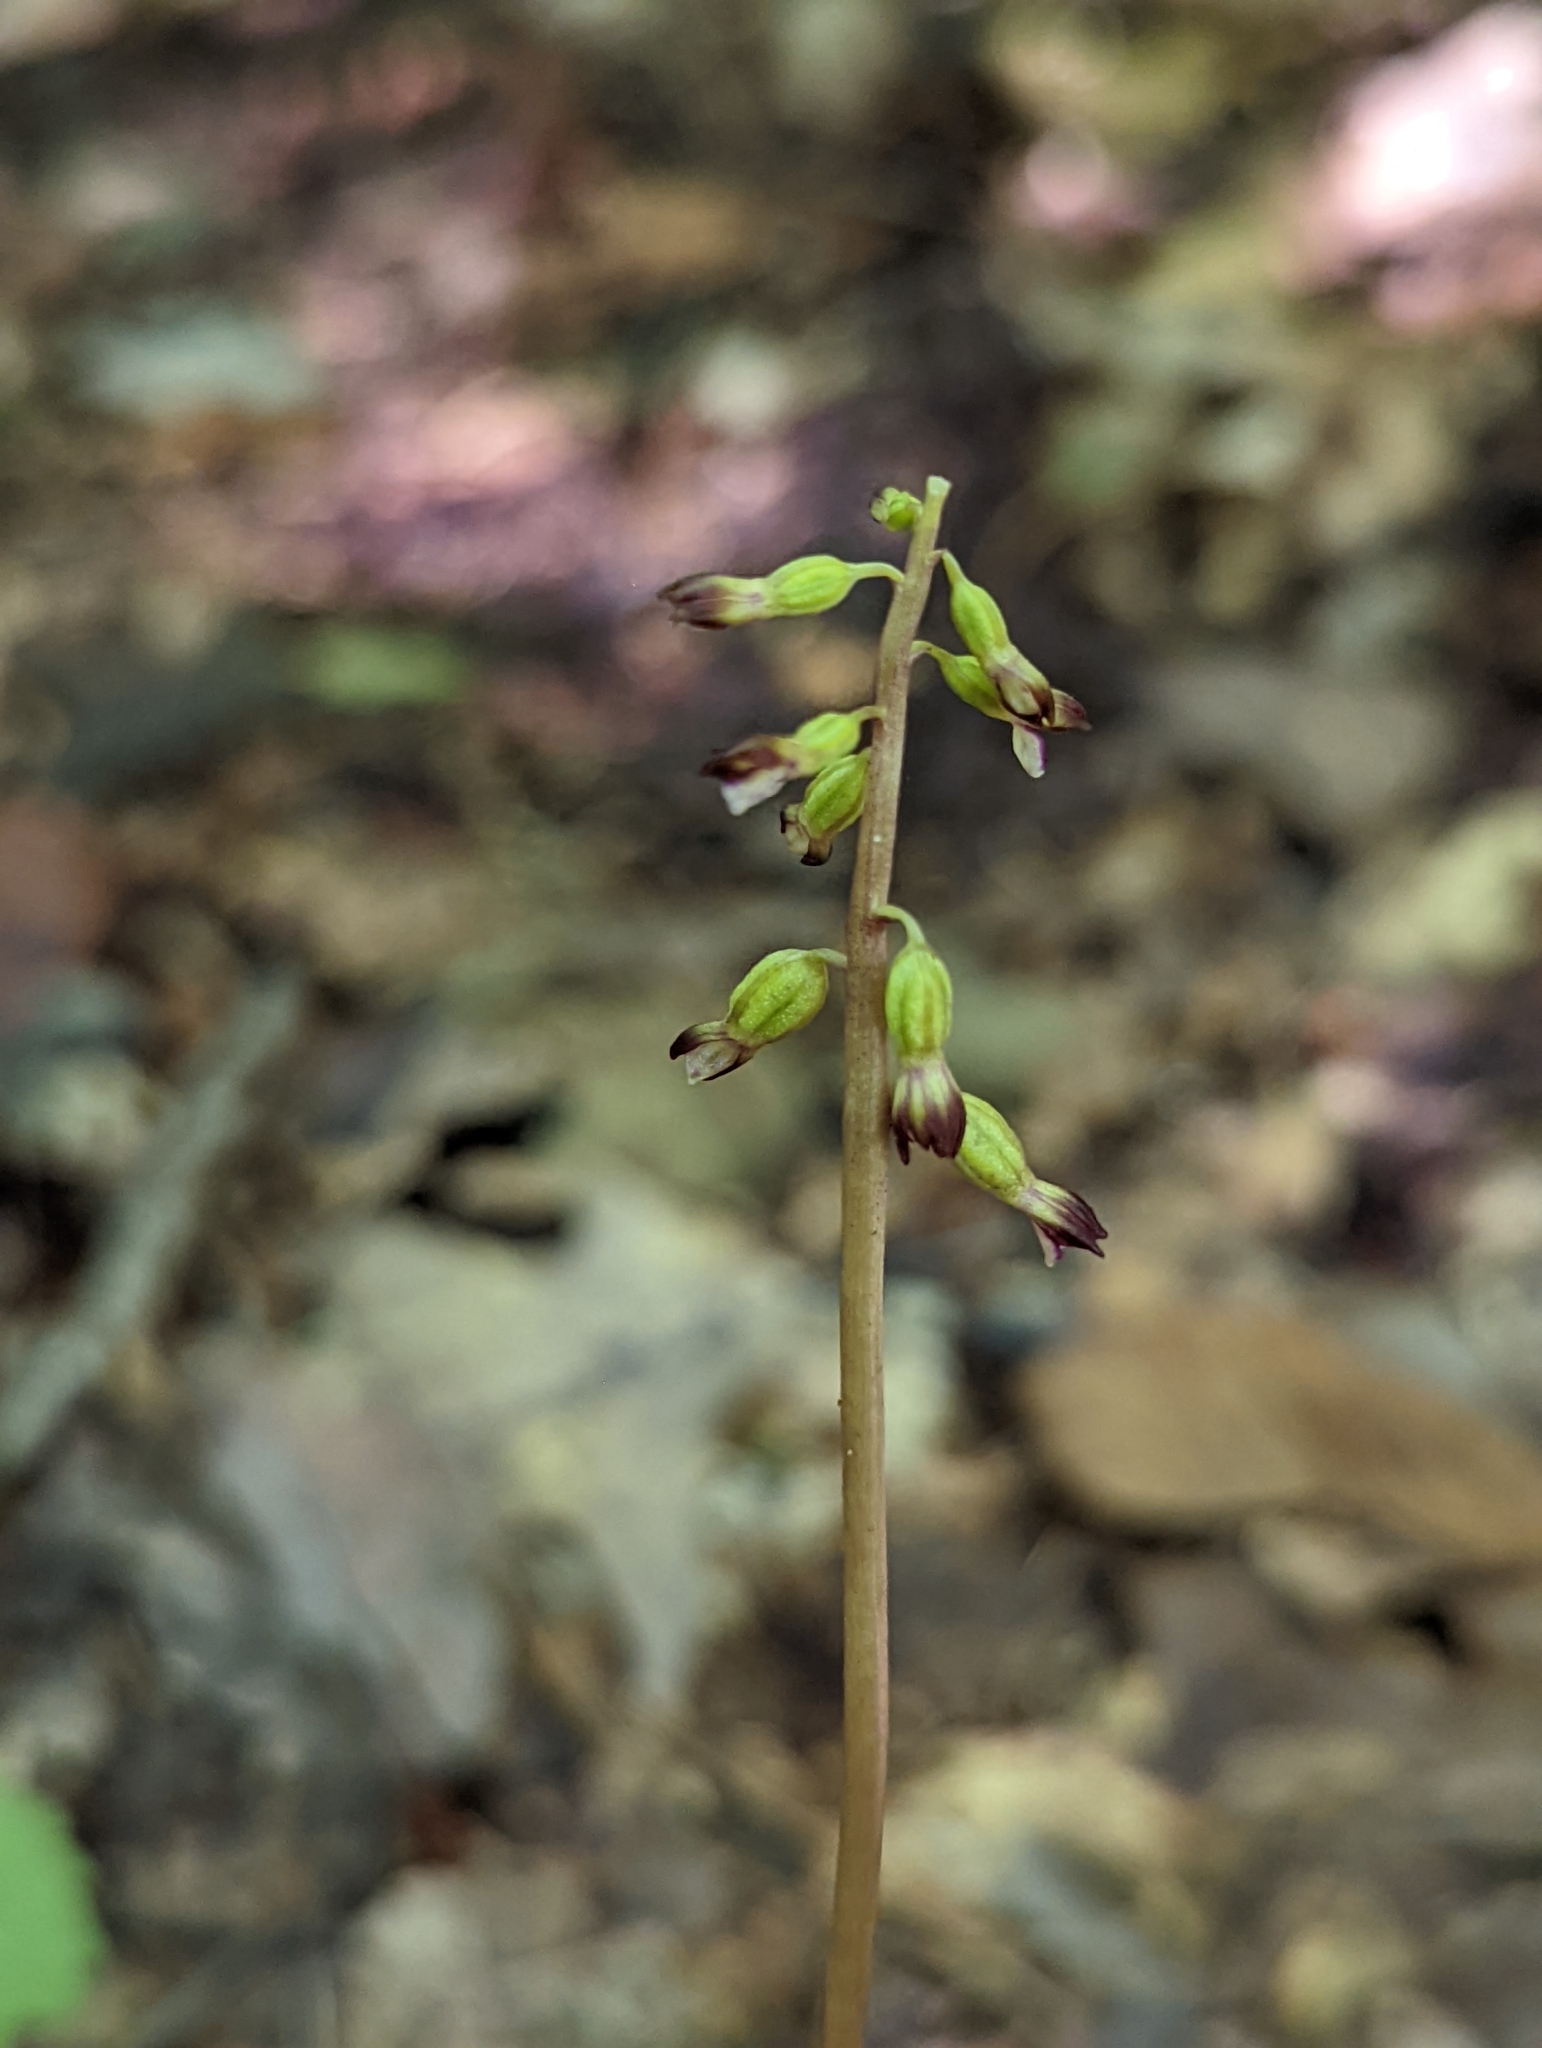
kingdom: Plantae
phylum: Tracheophyta
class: Liliopsida
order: Asparagales
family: Orchidaceae
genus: Corallorhiza
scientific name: Corallorhiza odontorhiza
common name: Autumn coralroot
